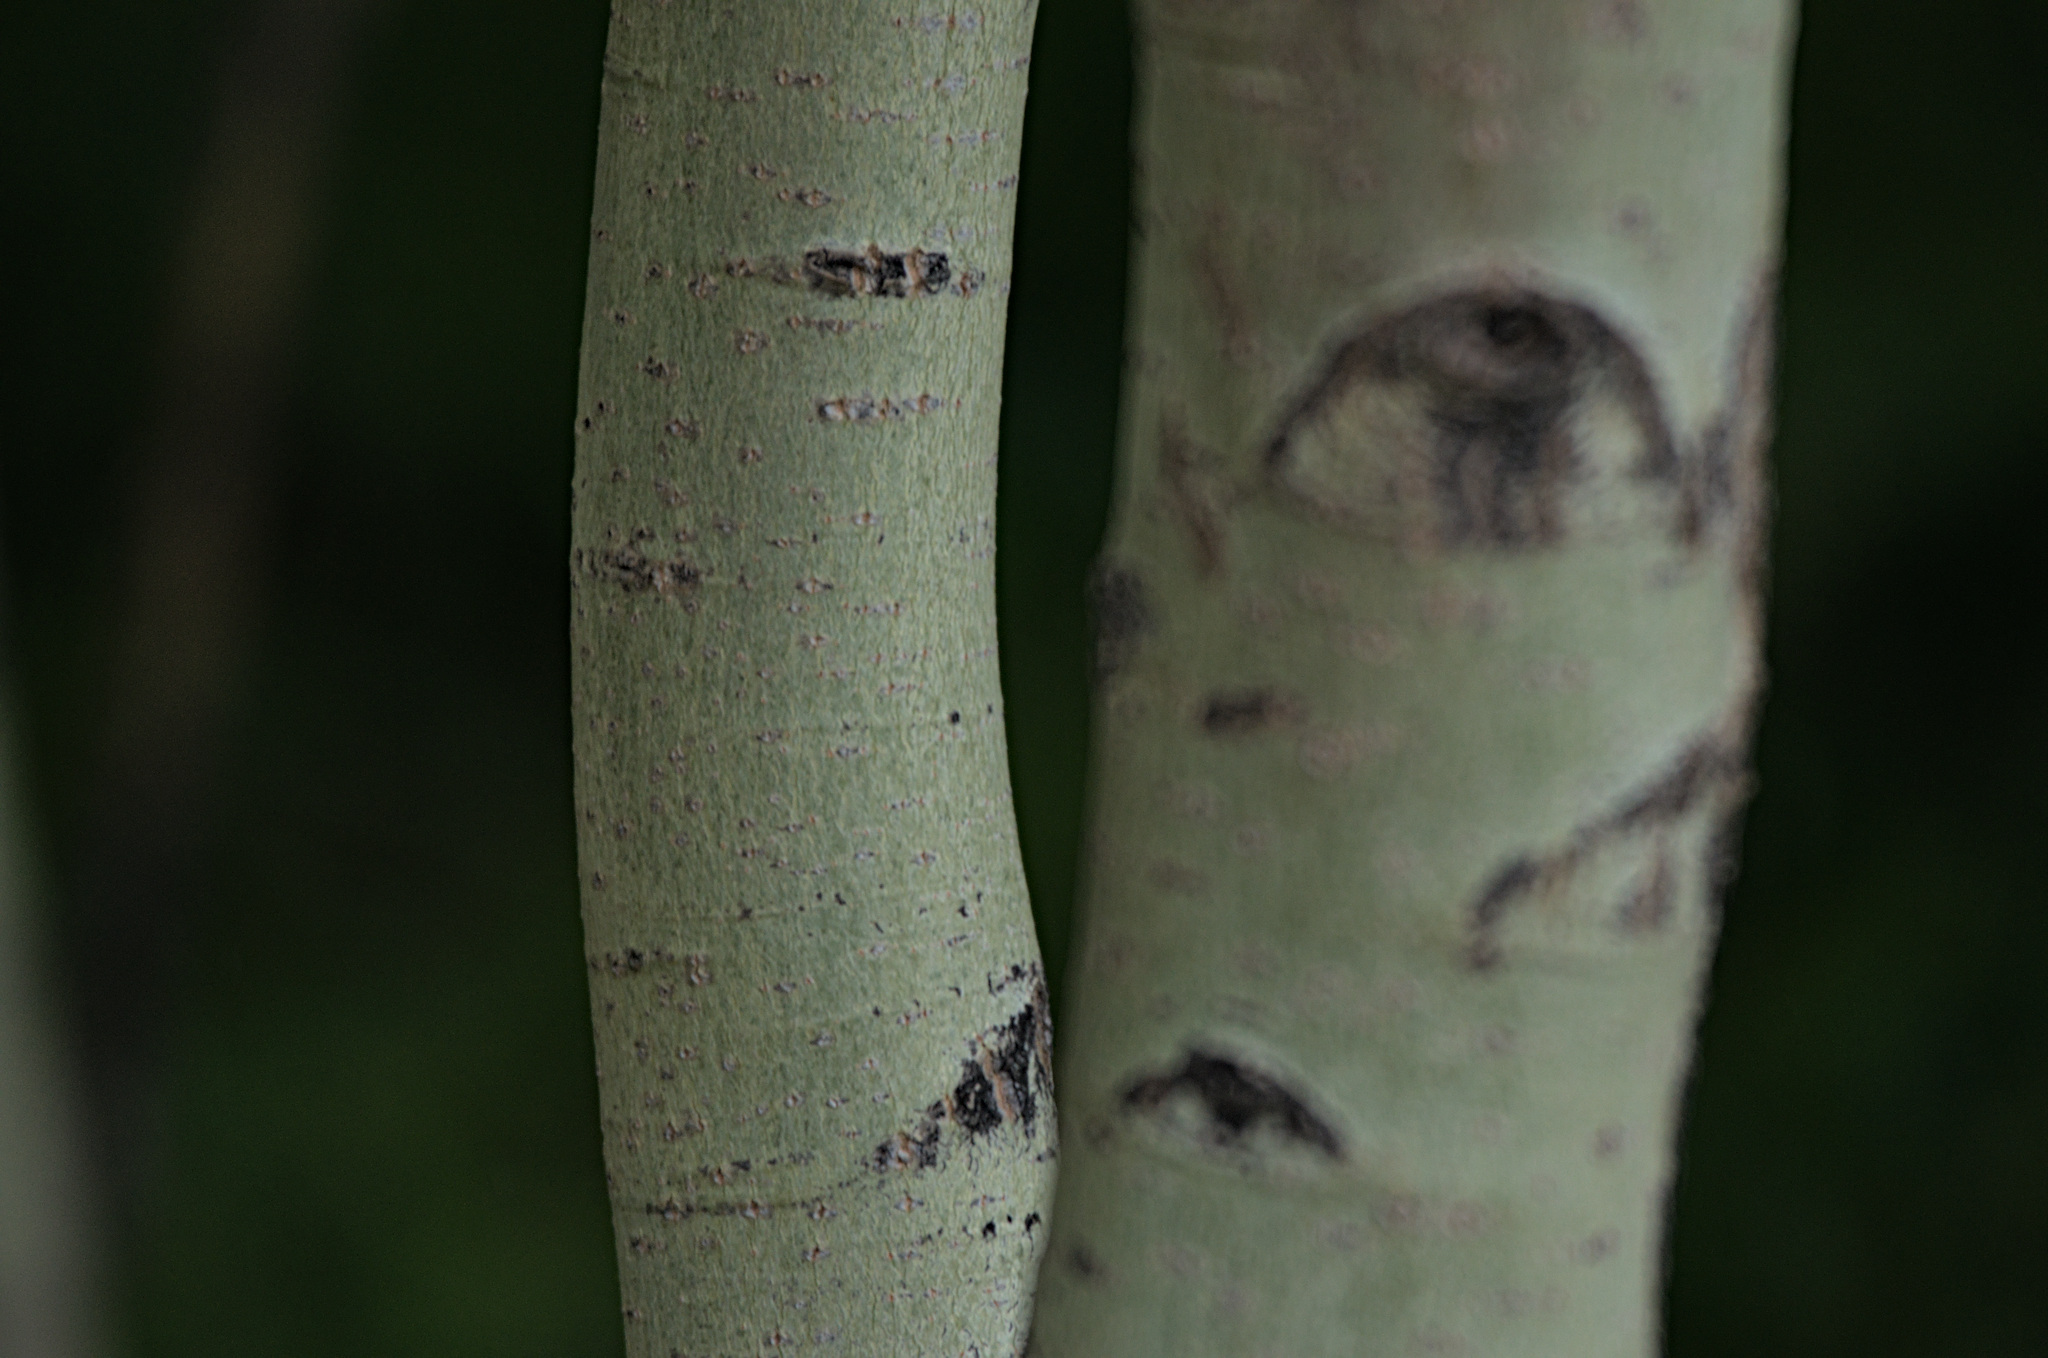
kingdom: Plantae
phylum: Tracheophyta
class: Magnoliopsida
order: Malpighiales
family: Salicaceae
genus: Populus
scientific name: Populus tremula
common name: European aspen
